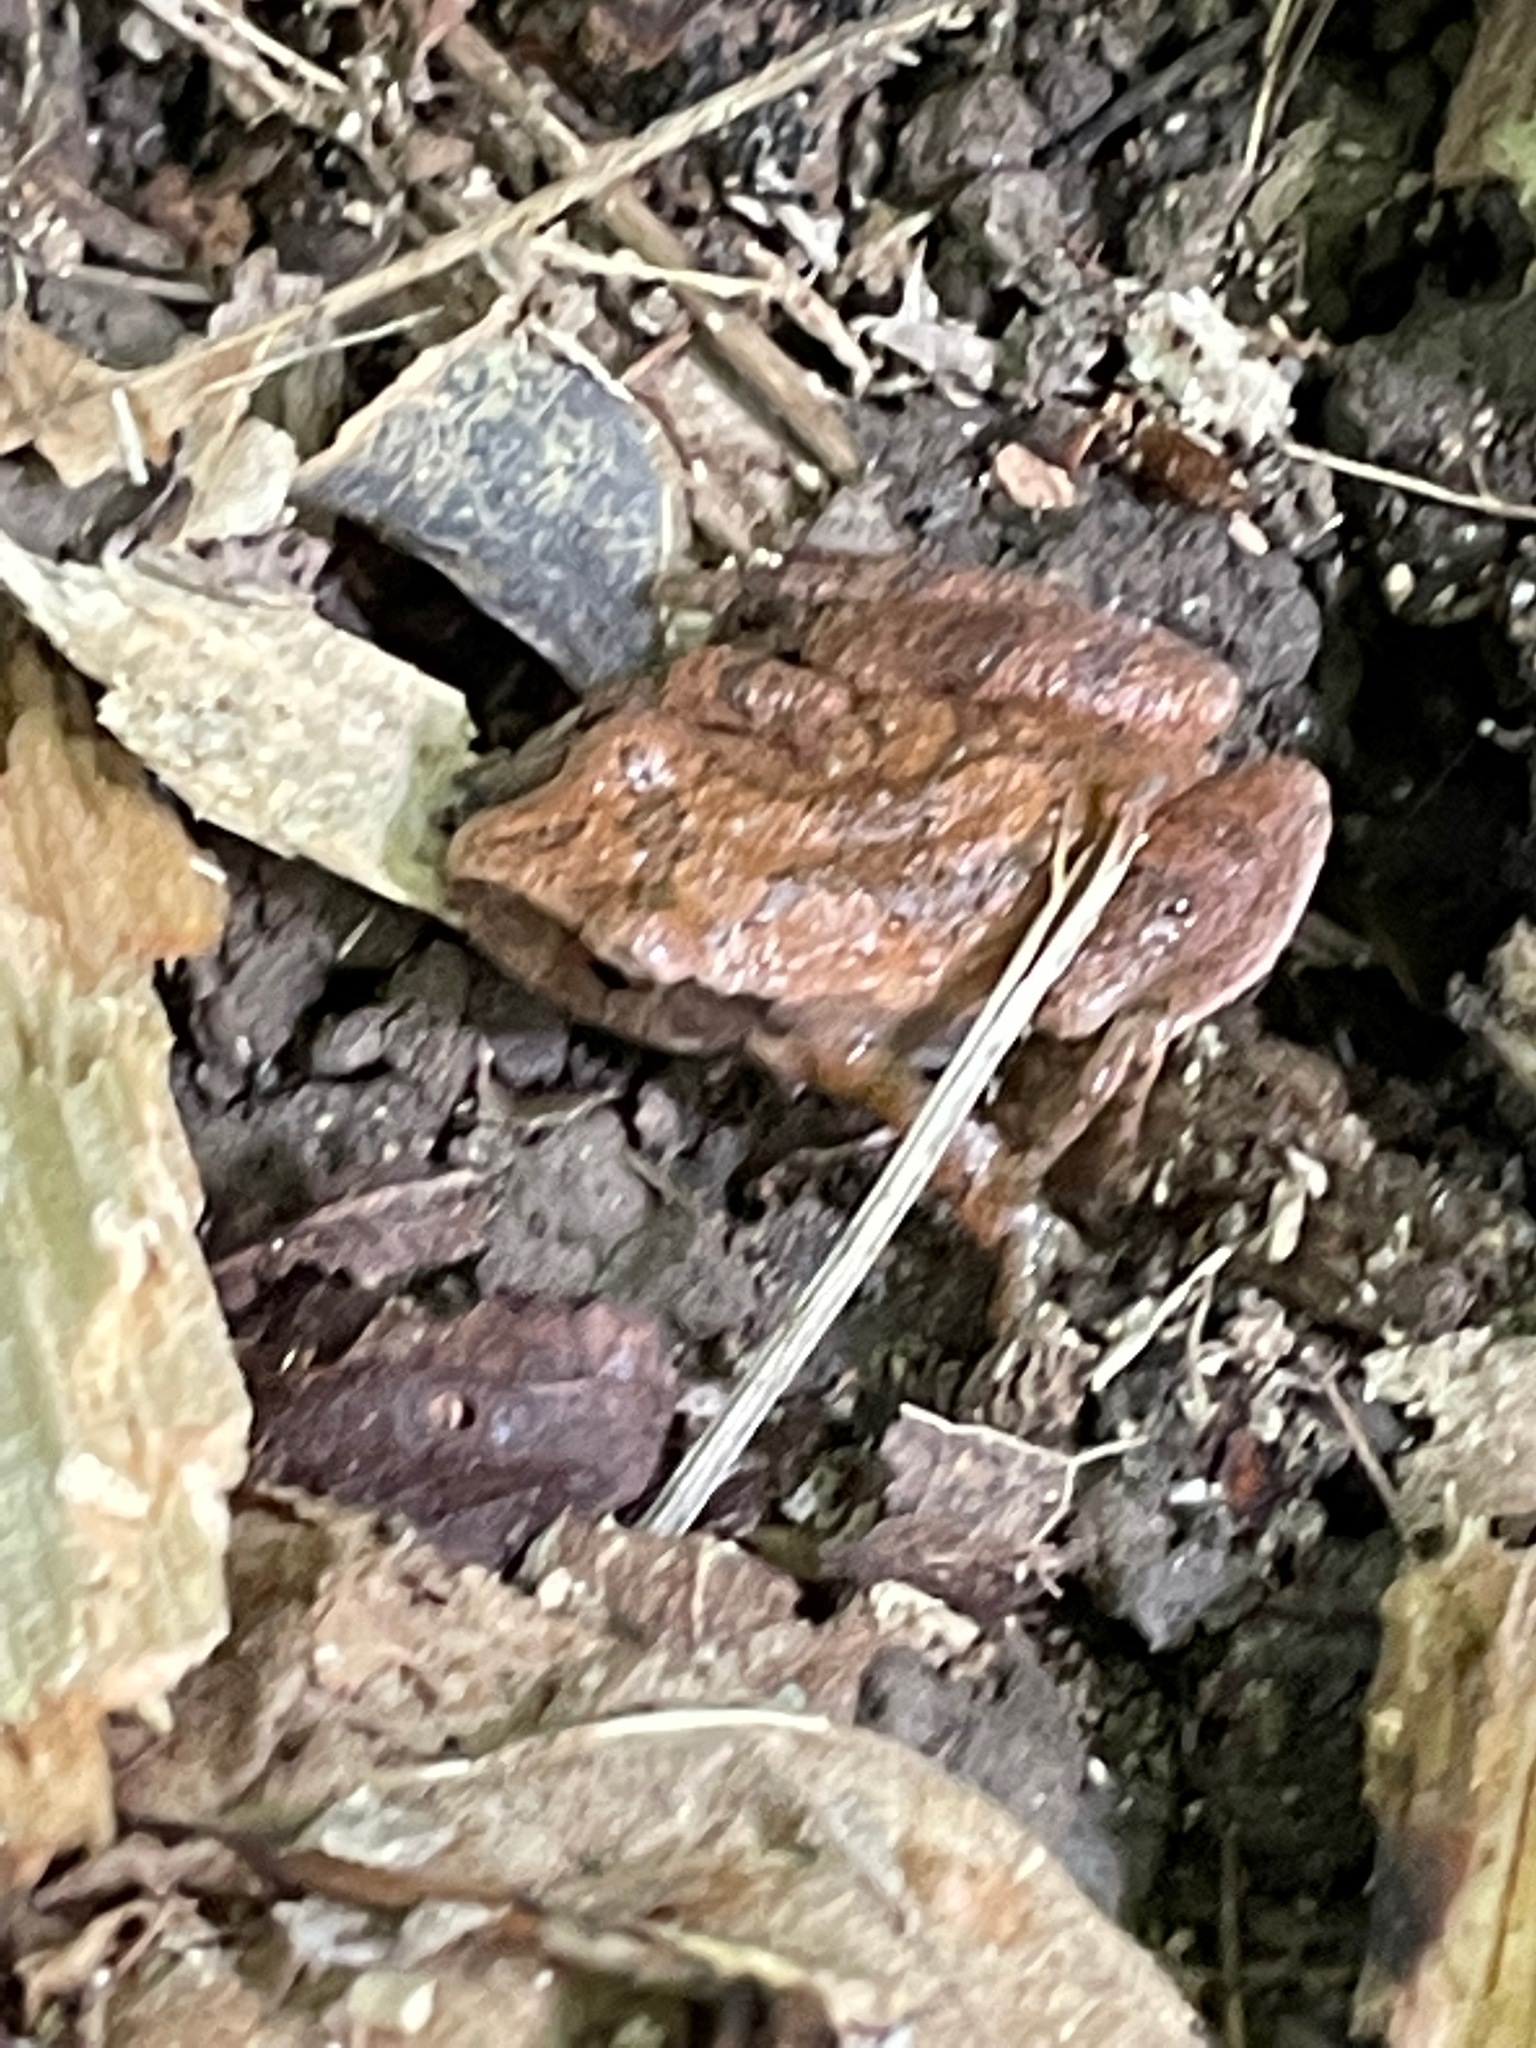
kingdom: Animalia
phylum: Chordata
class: Amphibia
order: Anura
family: Hylidae
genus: Pseudacris
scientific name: Pseudacris crucifer
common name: Spring peeper
